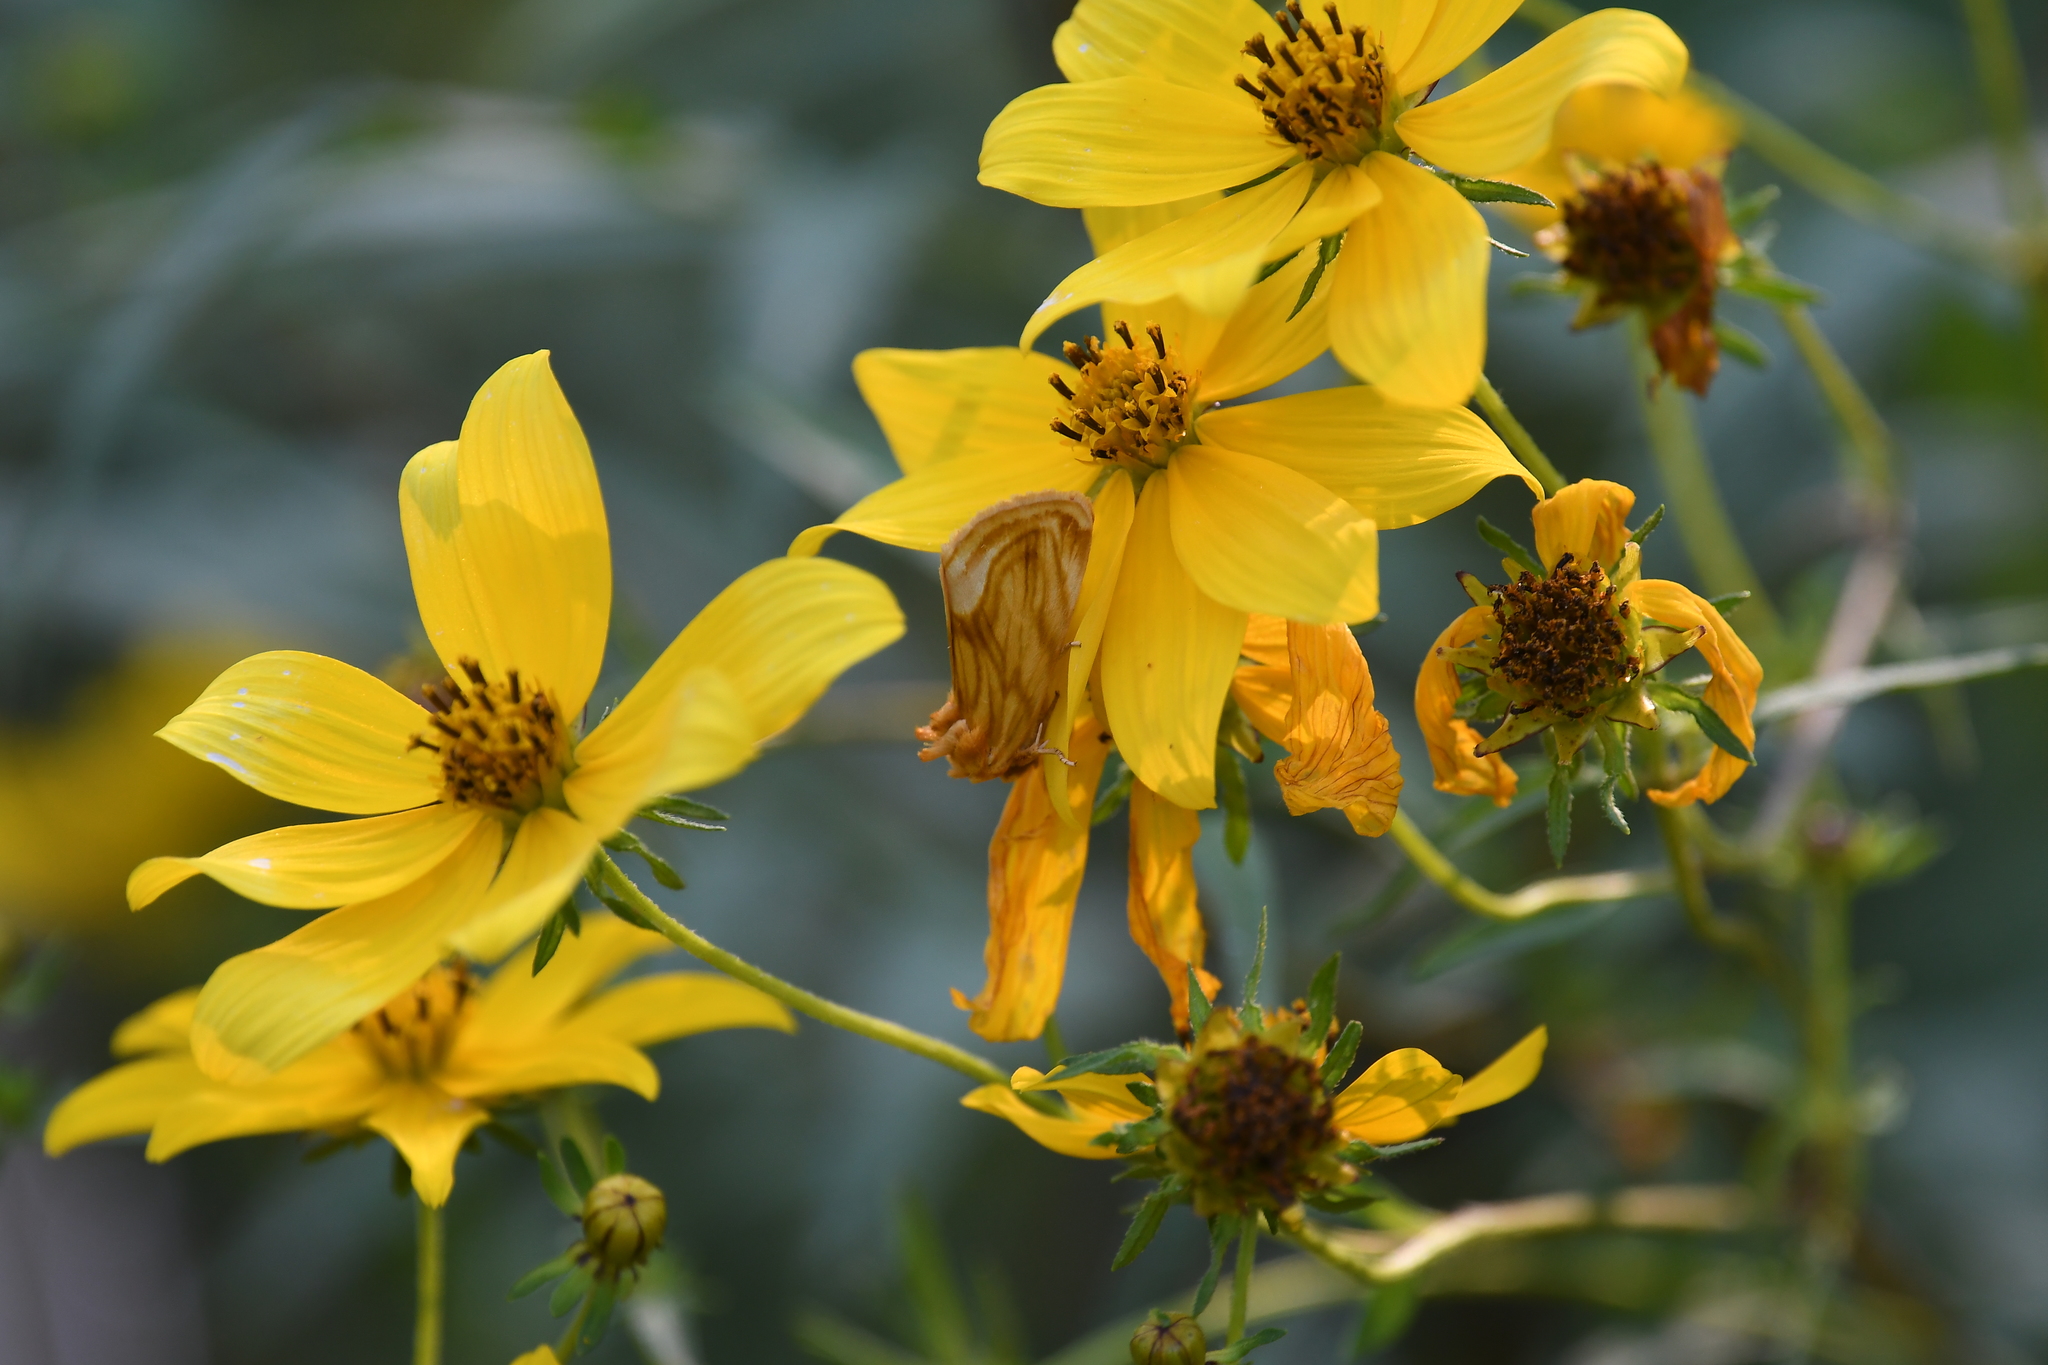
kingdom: Animalia
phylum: Arthropoda
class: Insecta
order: Lepidoptera
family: Noctuidae
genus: Cirrhophanus
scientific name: Cirrhophanus triangulifer
